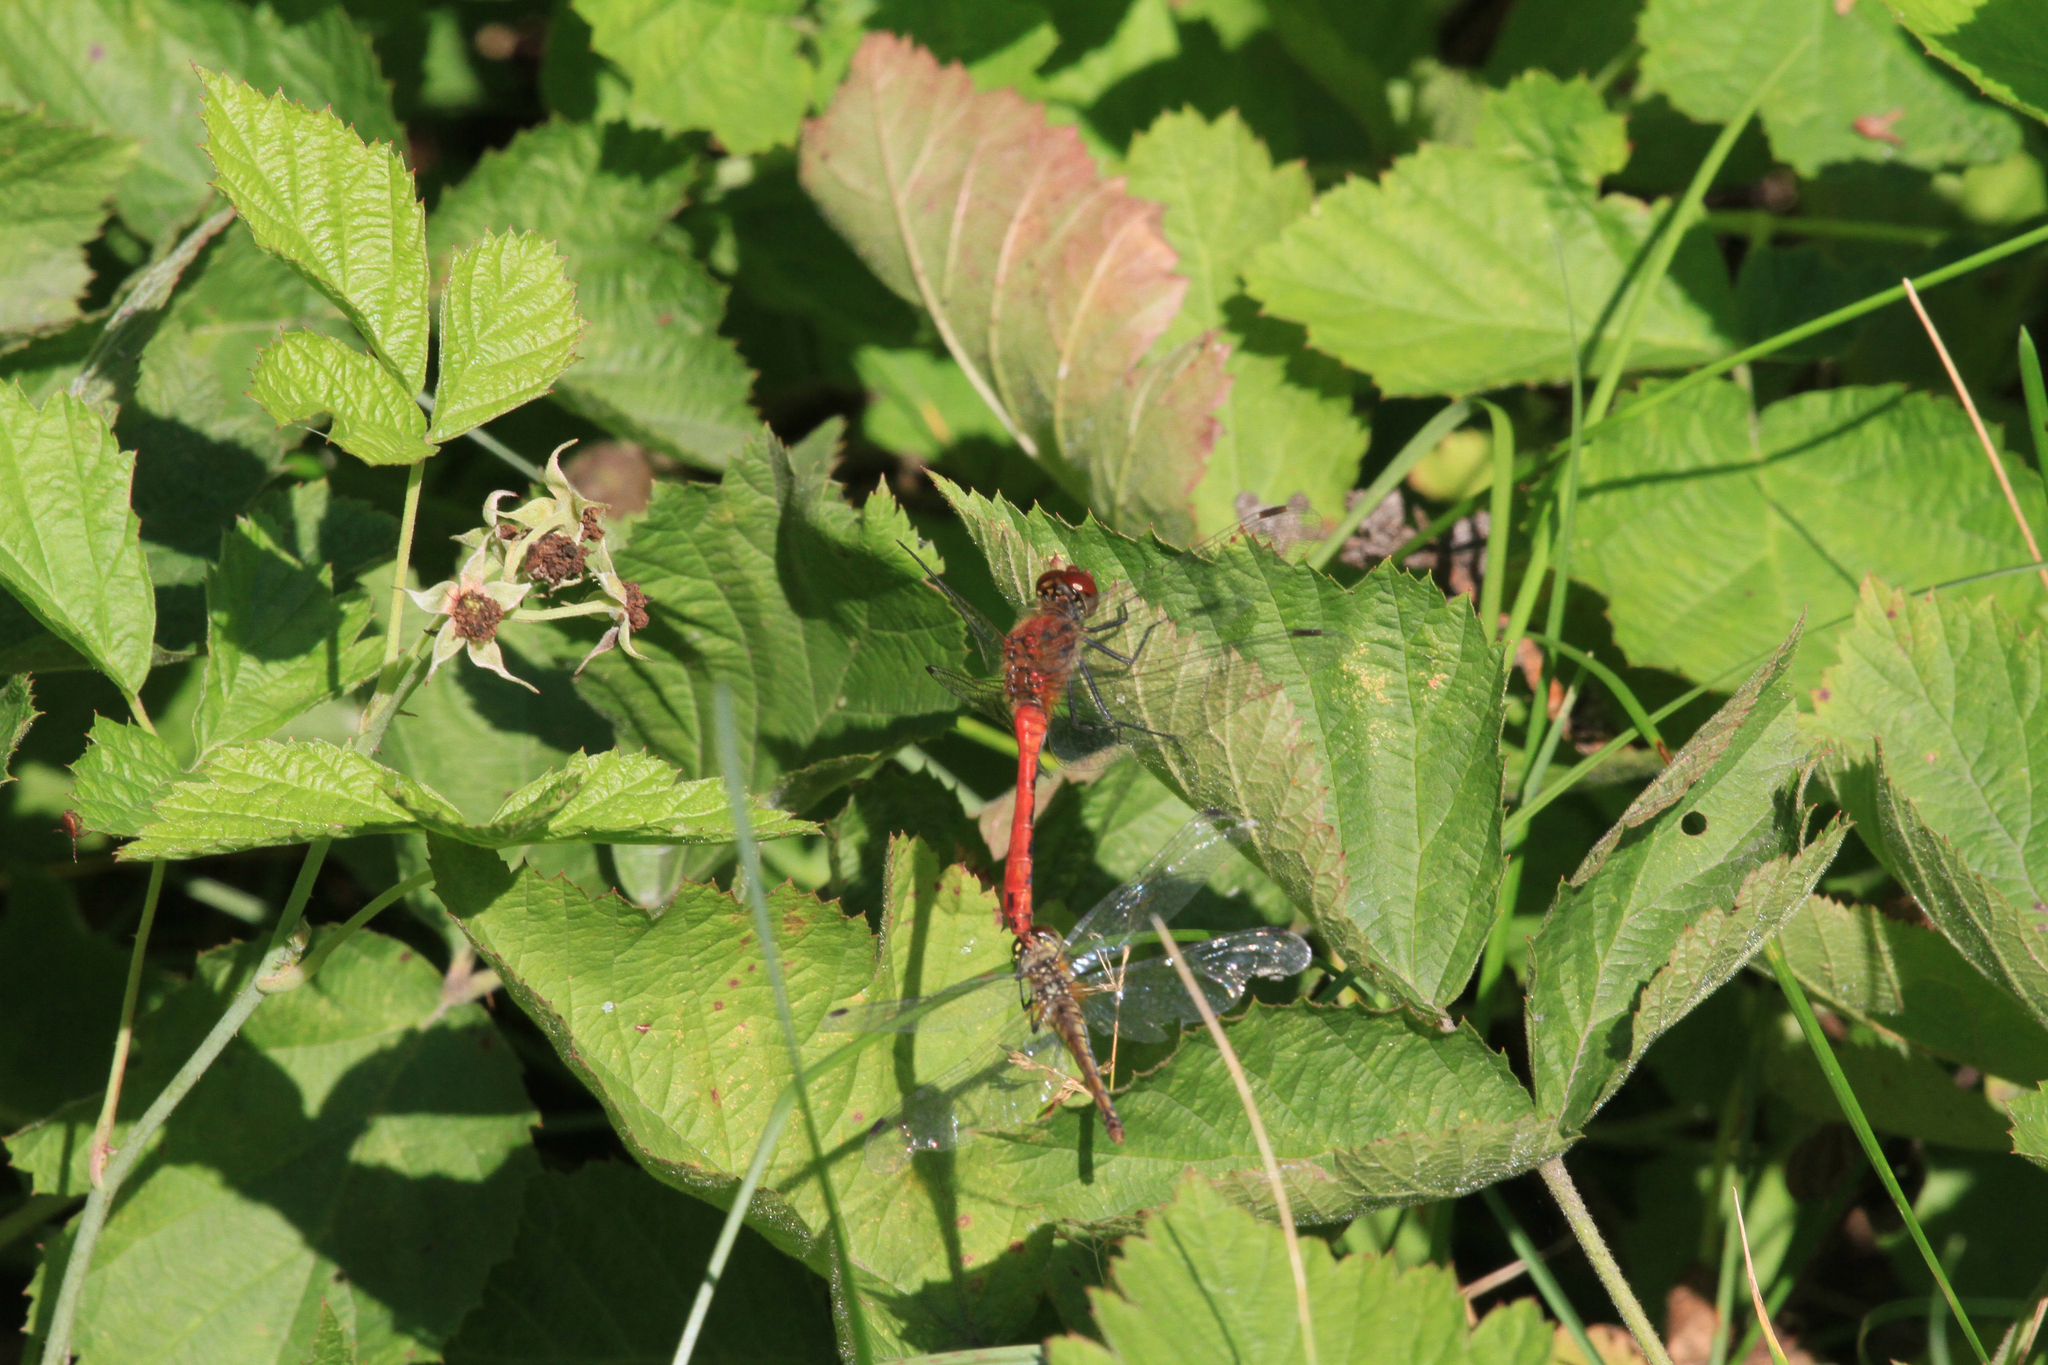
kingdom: Plantae
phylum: Tracheophyta
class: Magnoliopsida
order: Rosales
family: Rosaceae
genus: Rubus
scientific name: Rubus caesius
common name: Dewberry
